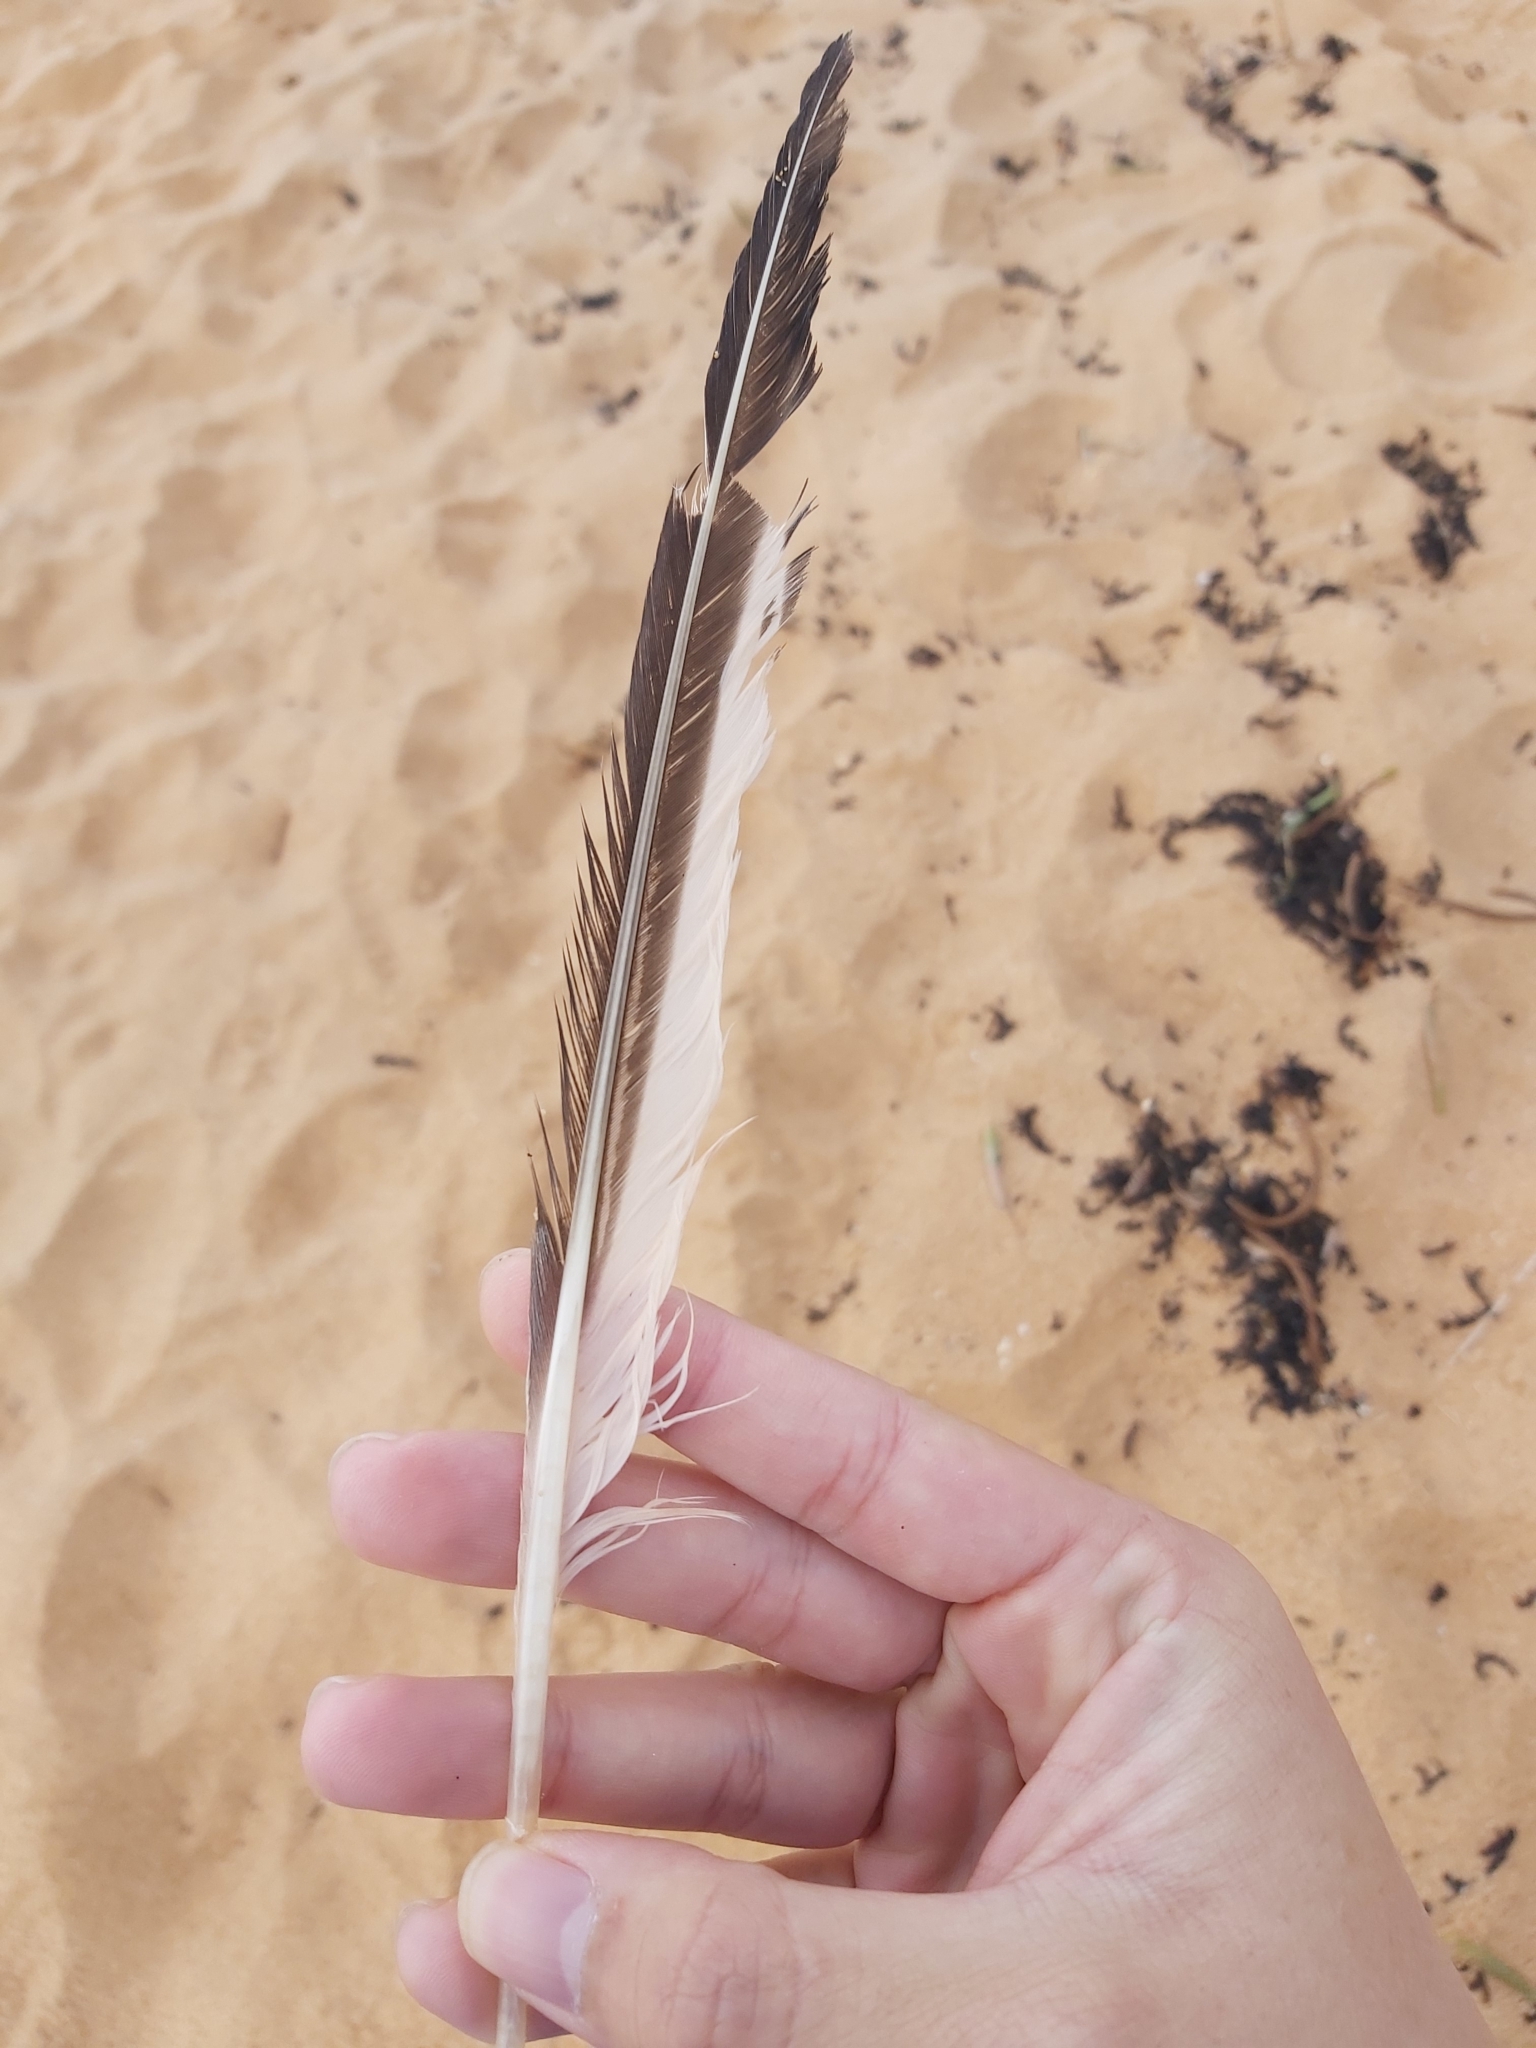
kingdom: Animalia
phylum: Chordata
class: Aves
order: Charadriiformes
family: Laridae
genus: Thalasseus
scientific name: Thalasseus bergii
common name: Greater crested tern
